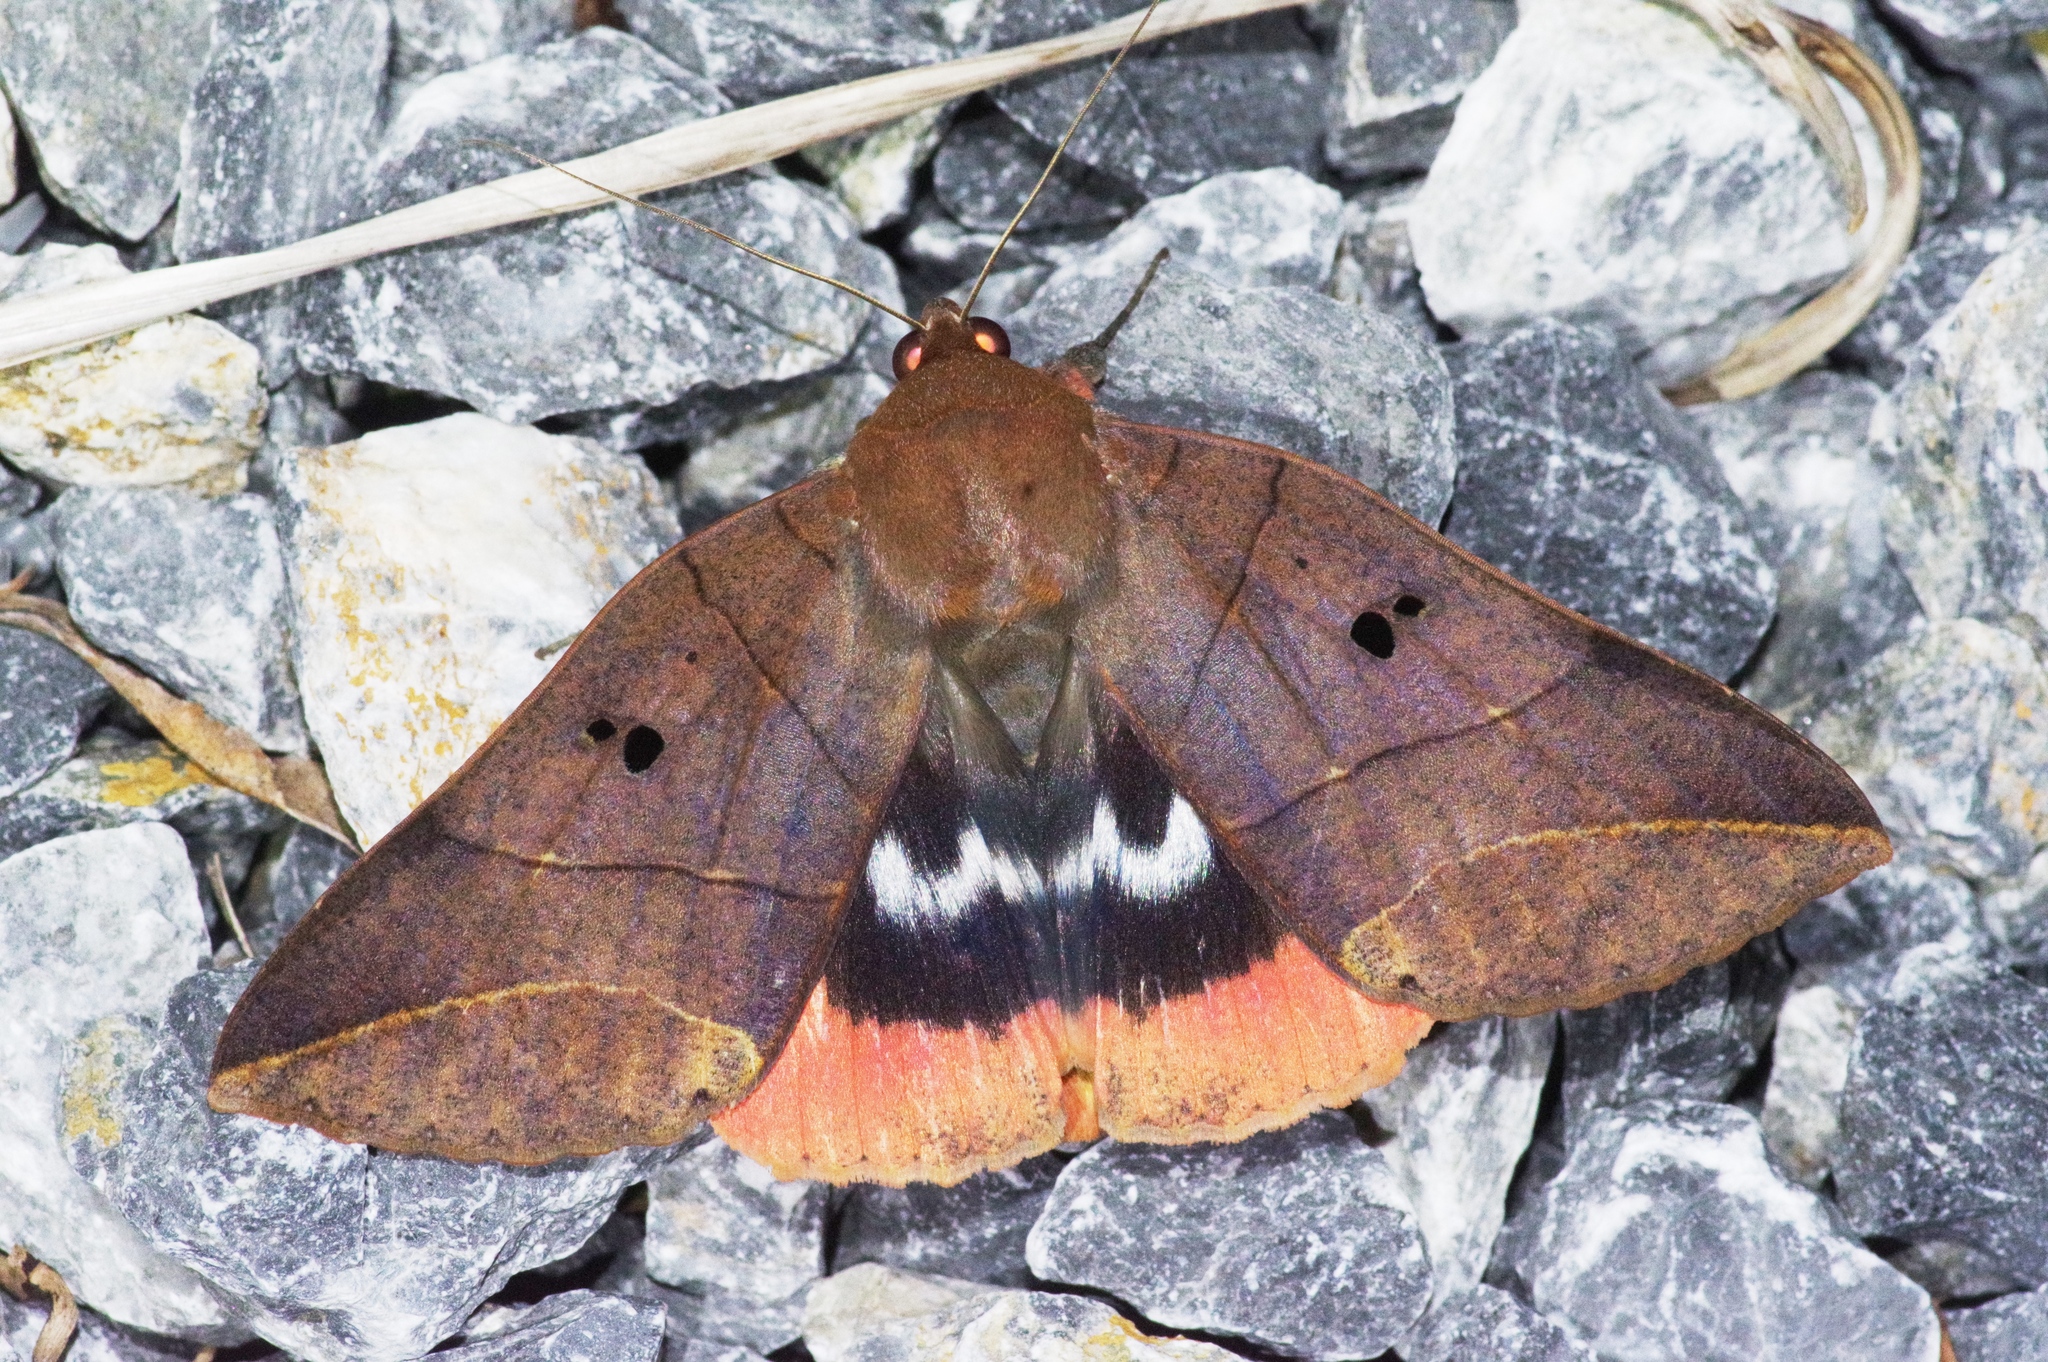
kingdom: Animalia
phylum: Arthropoda
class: Insecta
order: Lepidoptera
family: Erebidae
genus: Thyas
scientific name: Thyas juno
